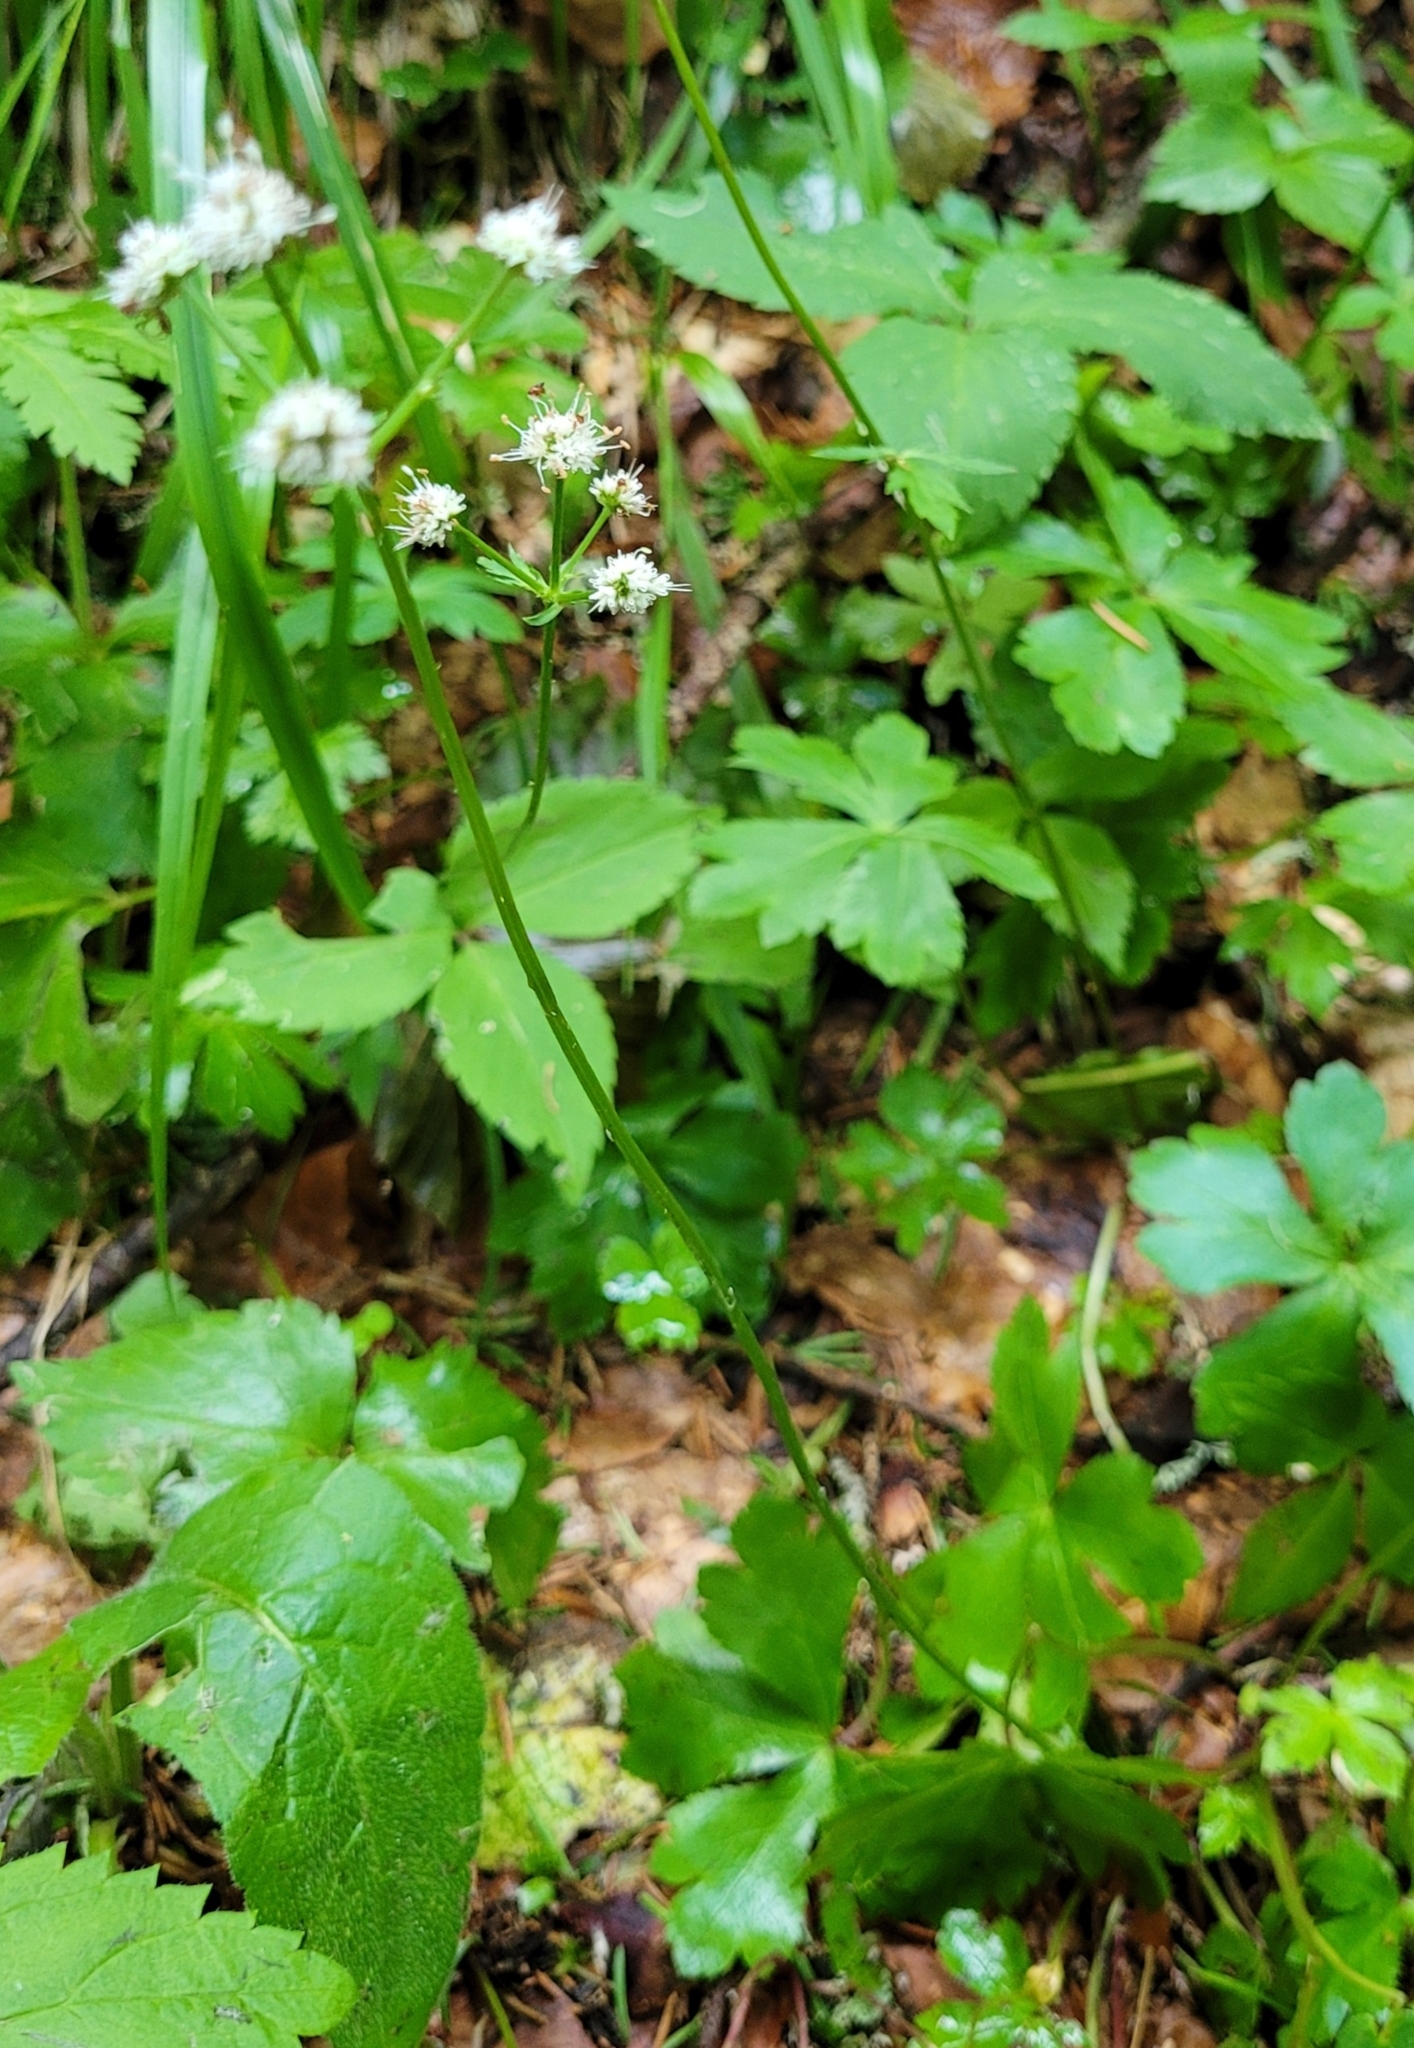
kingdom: Plantae
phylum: Tracheophyta
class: Magnoliopsida
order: Apiales
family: Apiaceae
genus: Sanicula
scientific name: Sanicula europaea
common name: Sanicle
